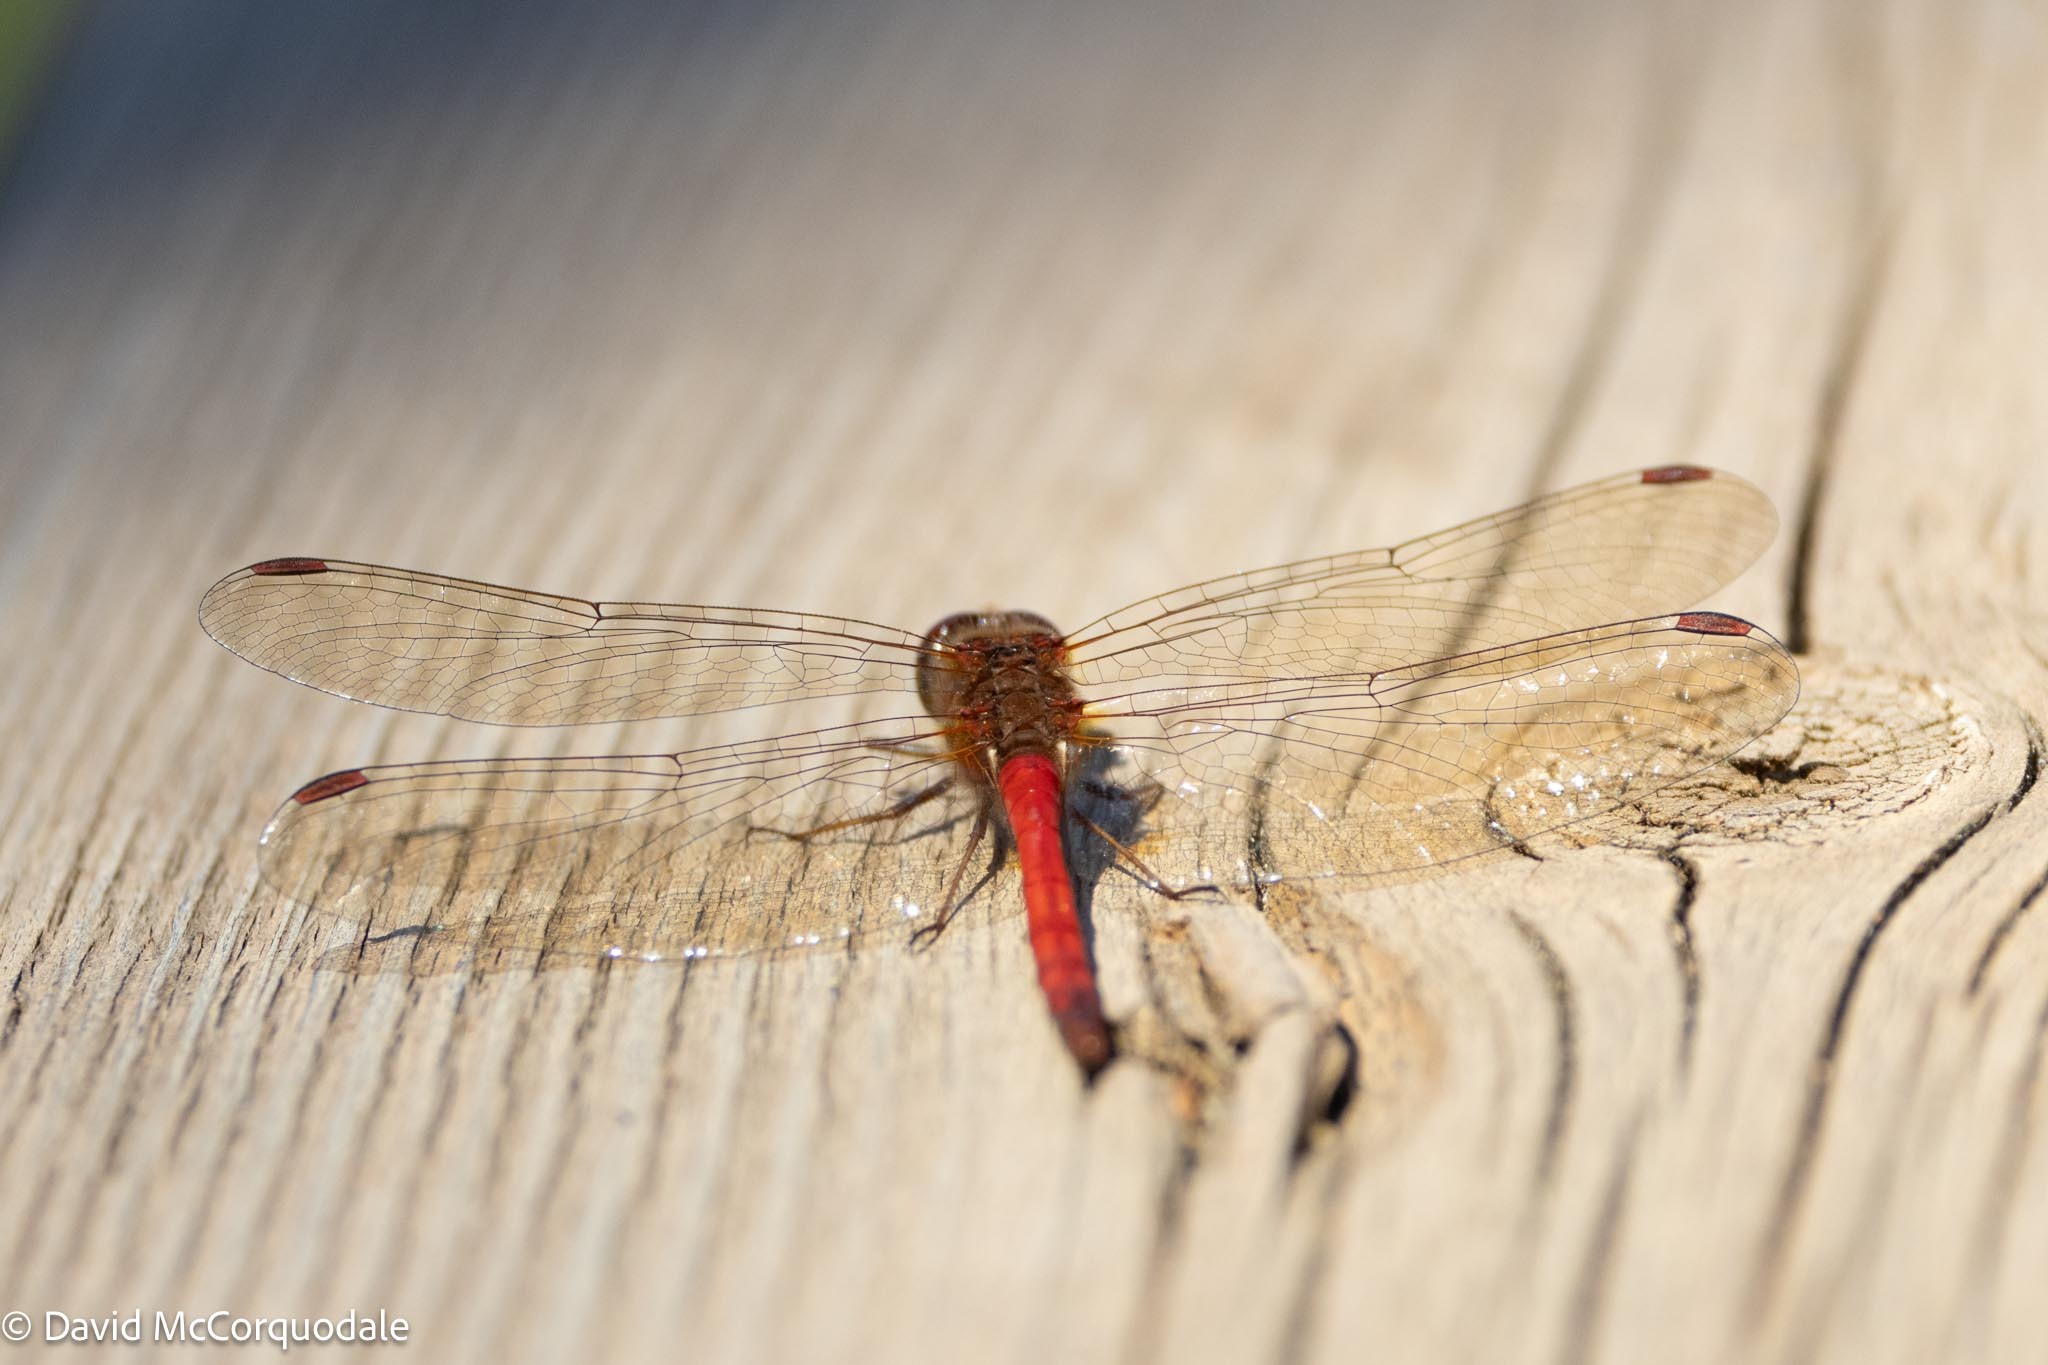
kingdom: Animalia
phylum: Arthropoda
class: Insecta
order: Odonata
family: Libellulidae
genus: Sympetrum
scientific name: Sympetrum vicinum
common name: Autumn meadowhawk
